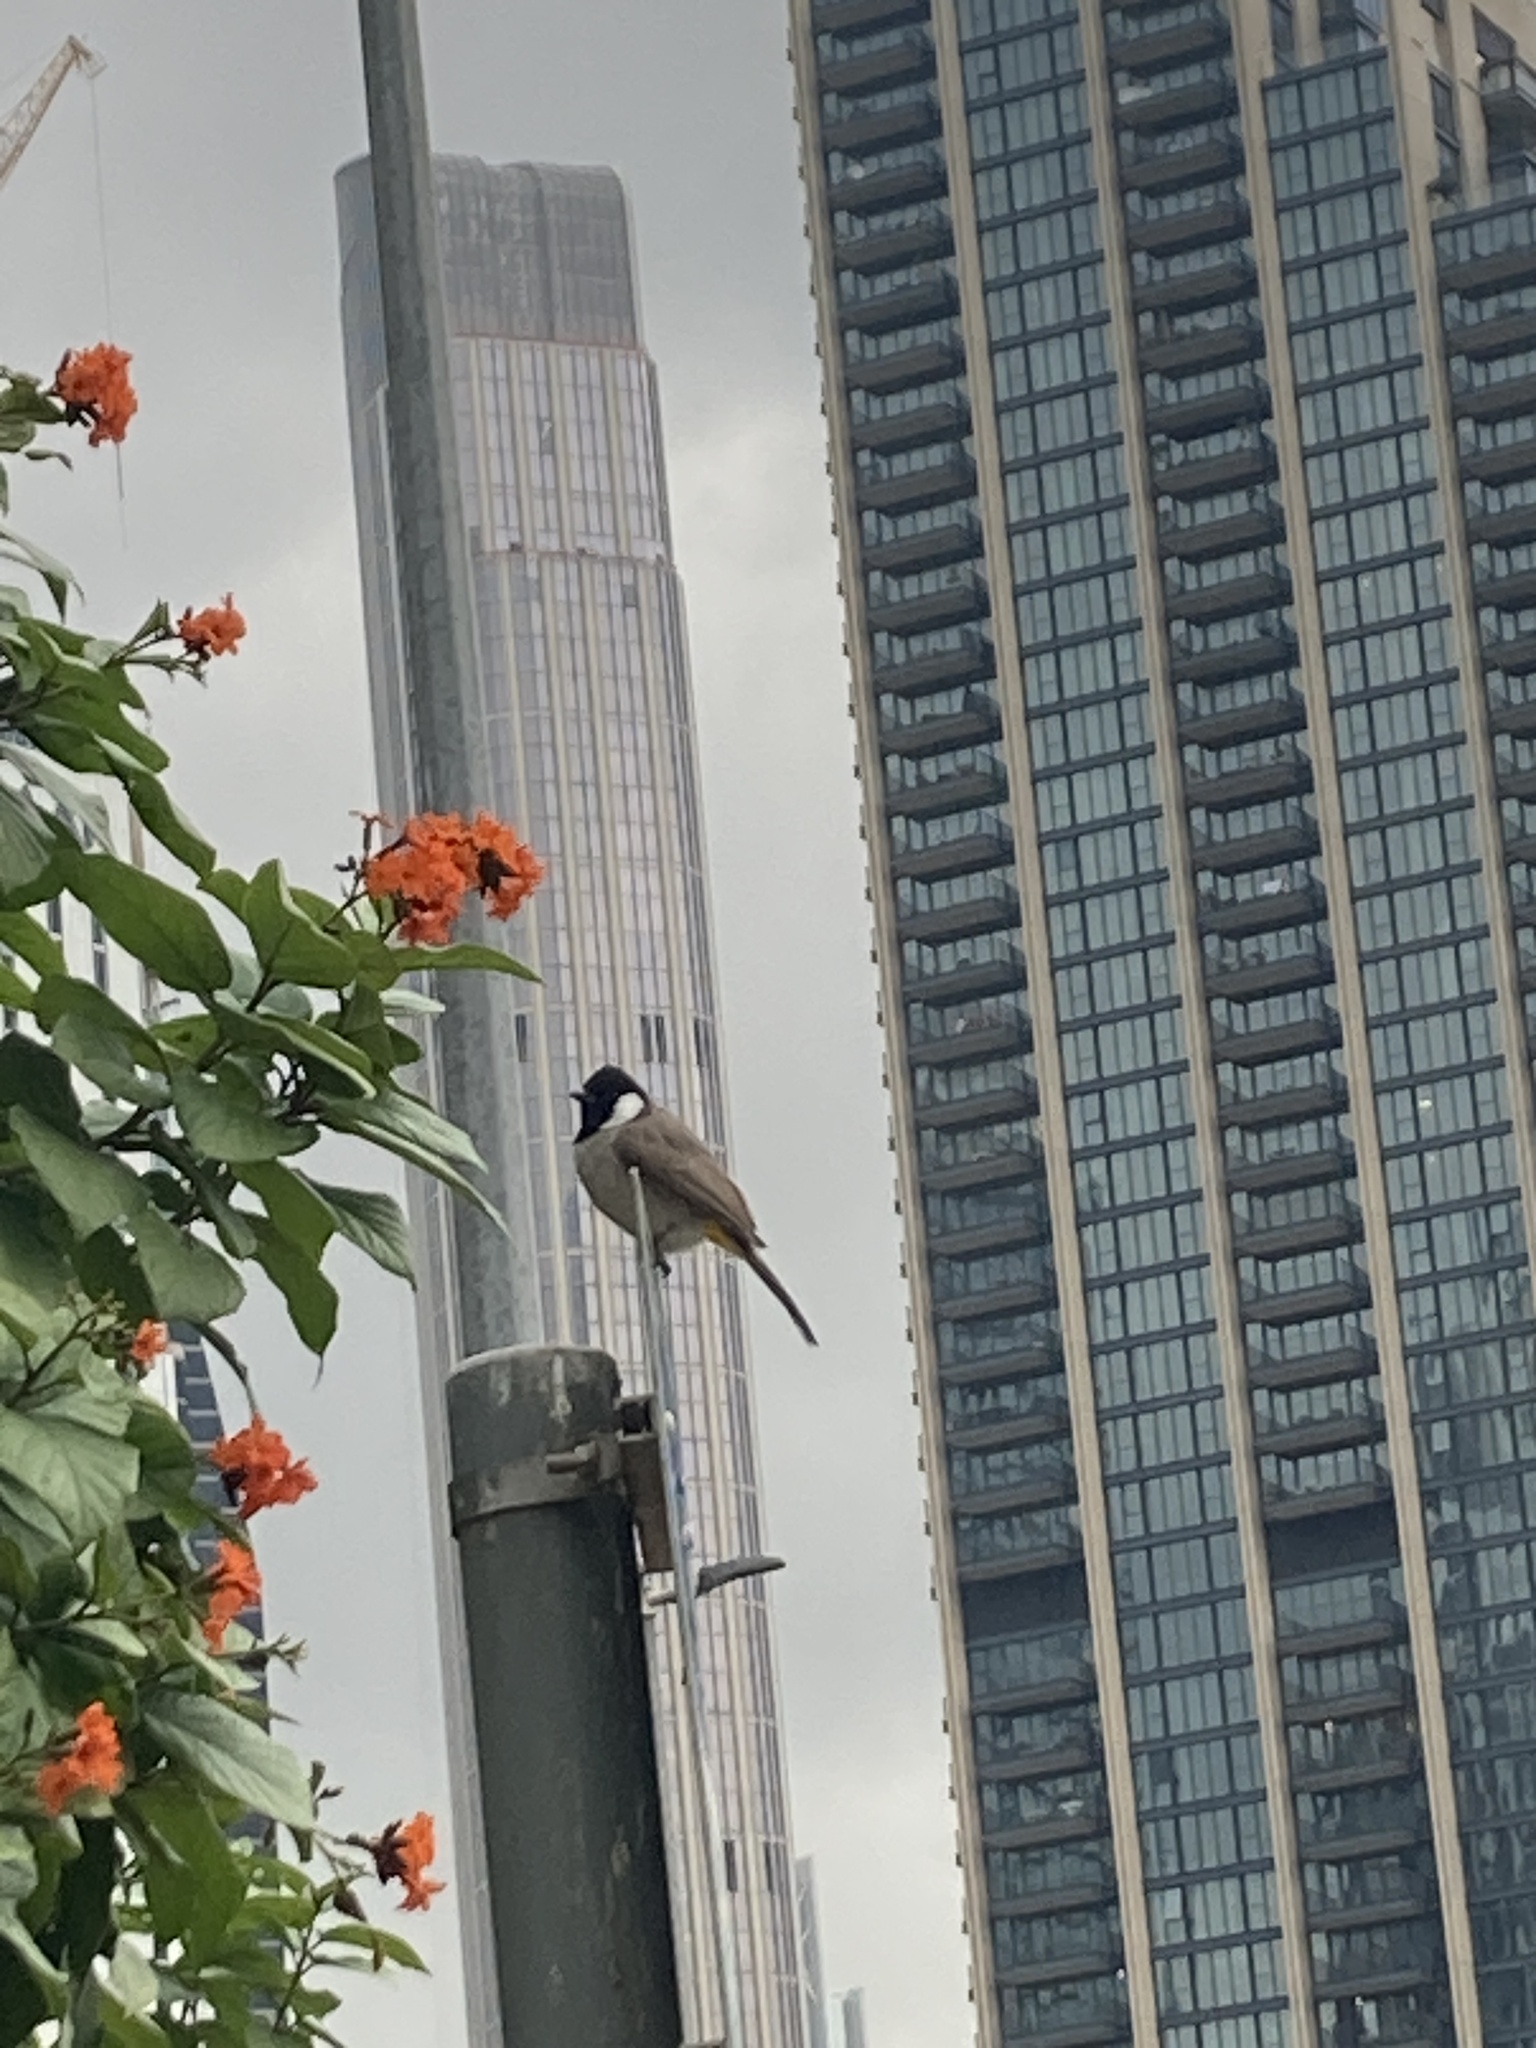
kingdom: Animalia
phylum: Chordata
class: Aves
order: Passeriformes
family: Pycnonotidae
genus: Pycnonotus
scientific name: Pycnonotus leucotis
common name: White-eared bulbul
